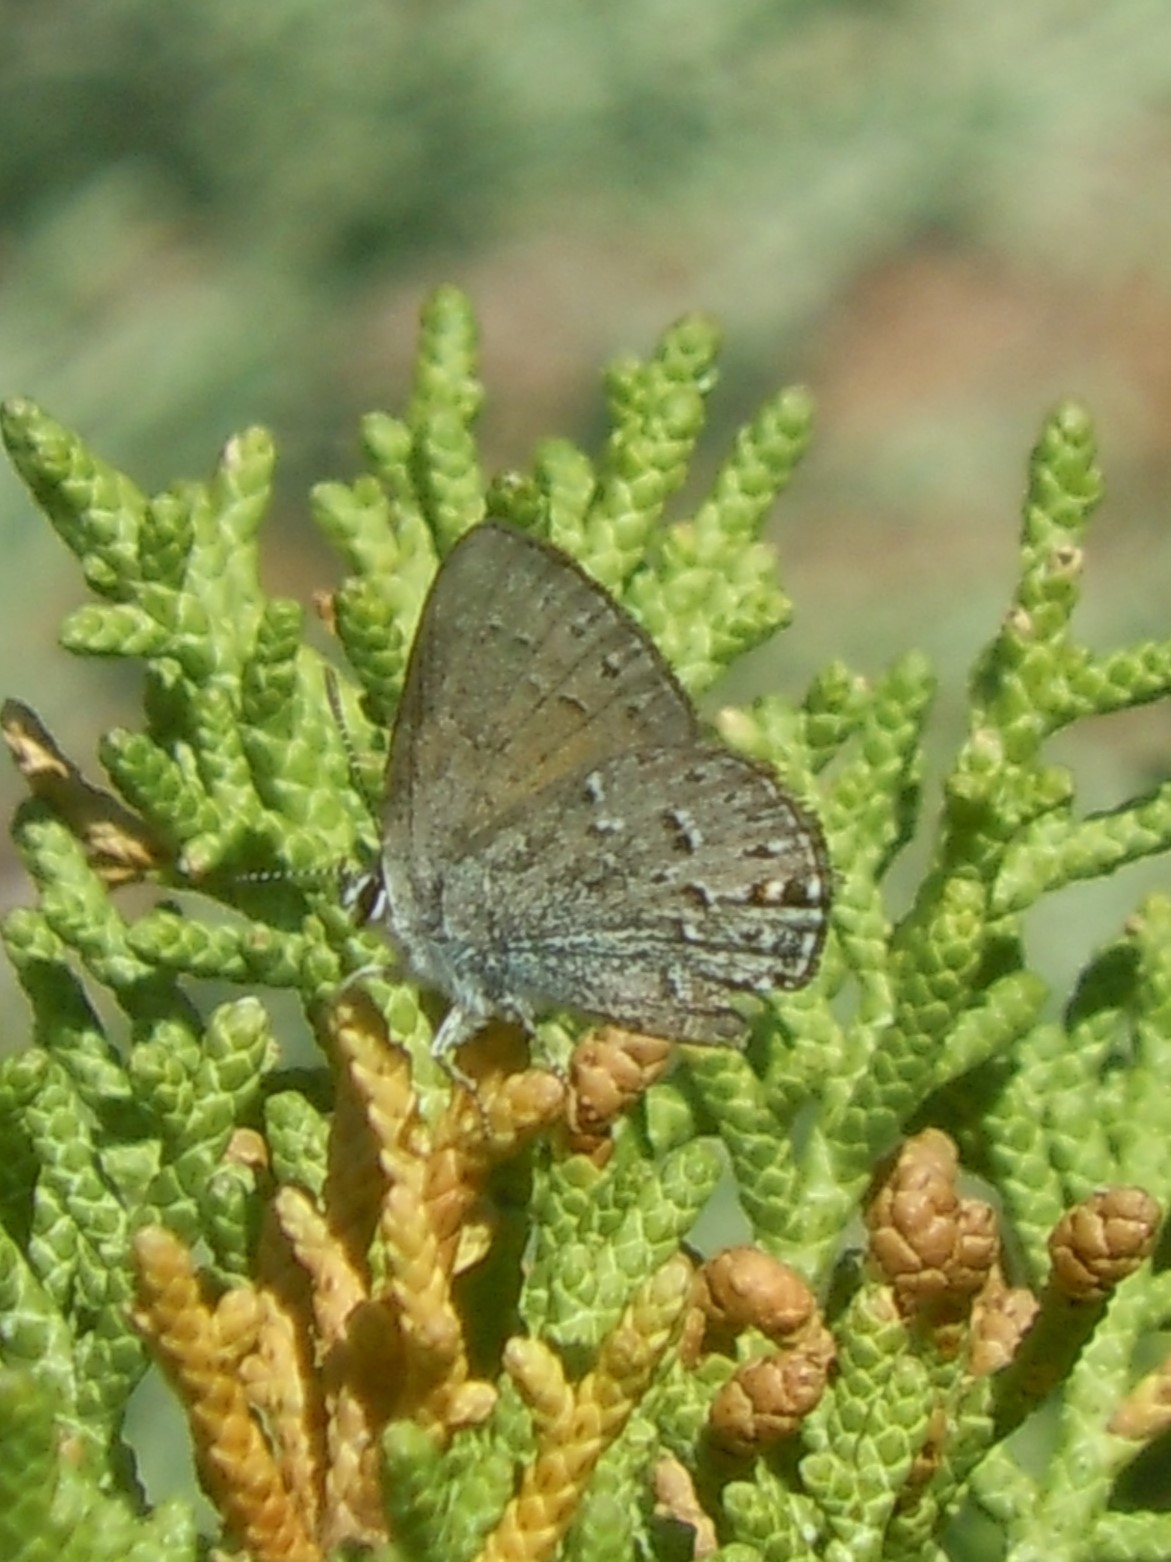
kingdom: Animalia
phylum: Arthropoda
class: Insecta
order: Lepidoptera
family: Lycaenidae
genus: Satyrium
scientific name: Satyrium behrii
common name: Behr's hairstreak
